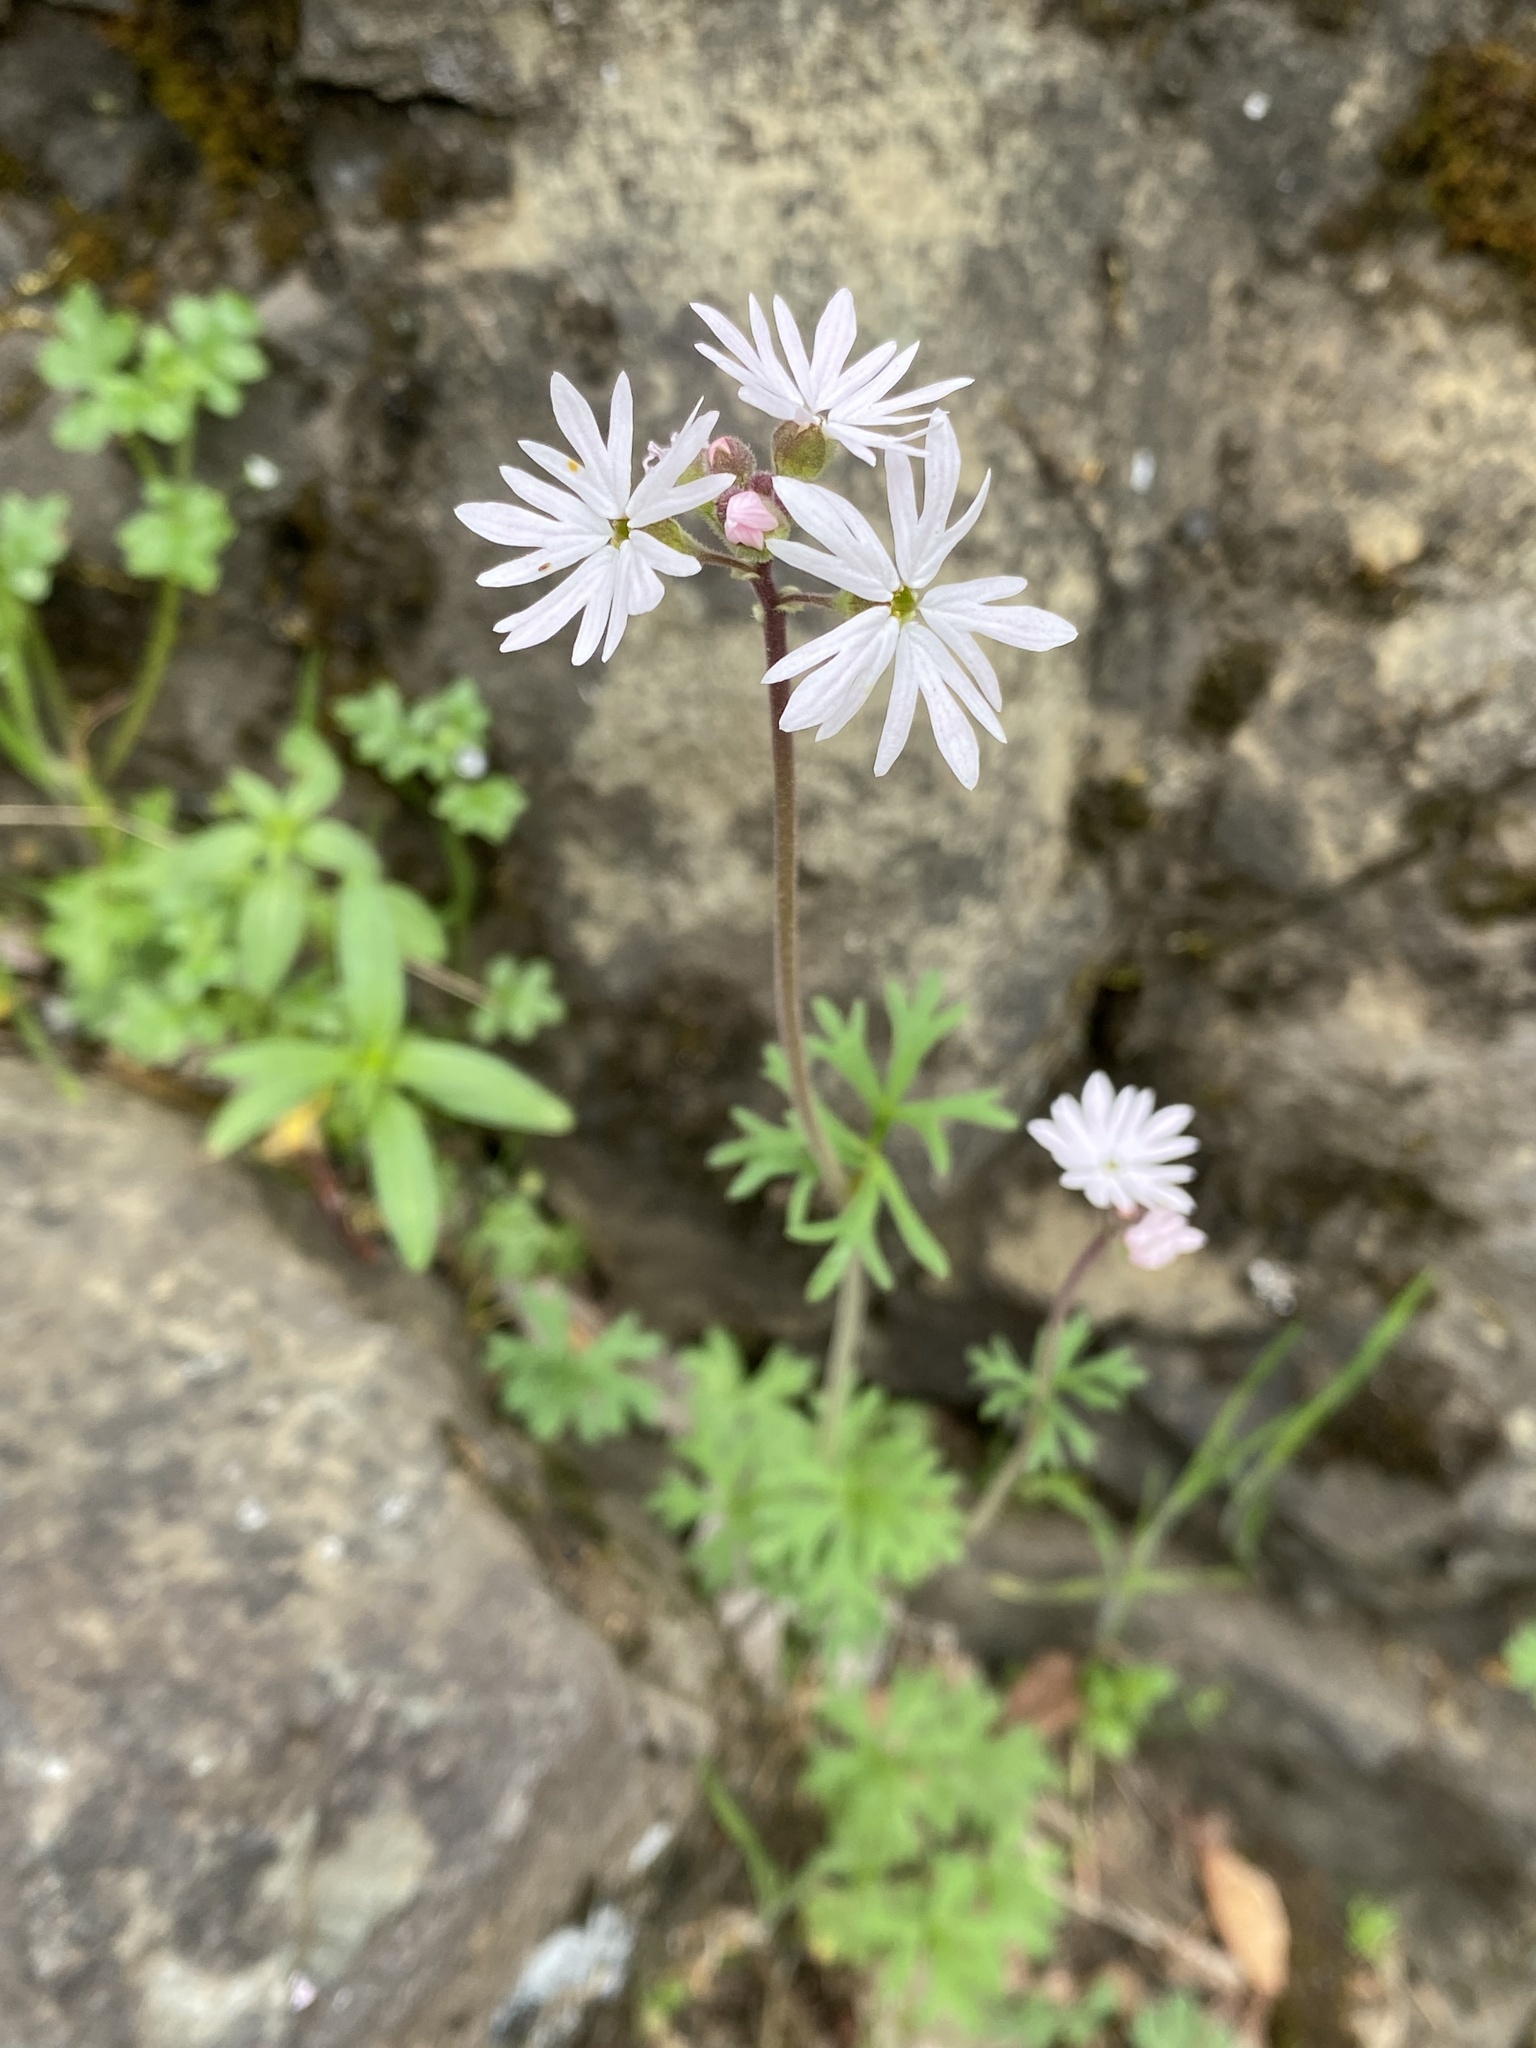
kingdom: Plantae
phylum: Tracheophyta
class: Magnoliopsida
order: Saxifragales
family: Saxifragaceae
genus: Lithophragma
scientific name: Lithophragma parviflorum
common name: Small-flowered fringe-cup
